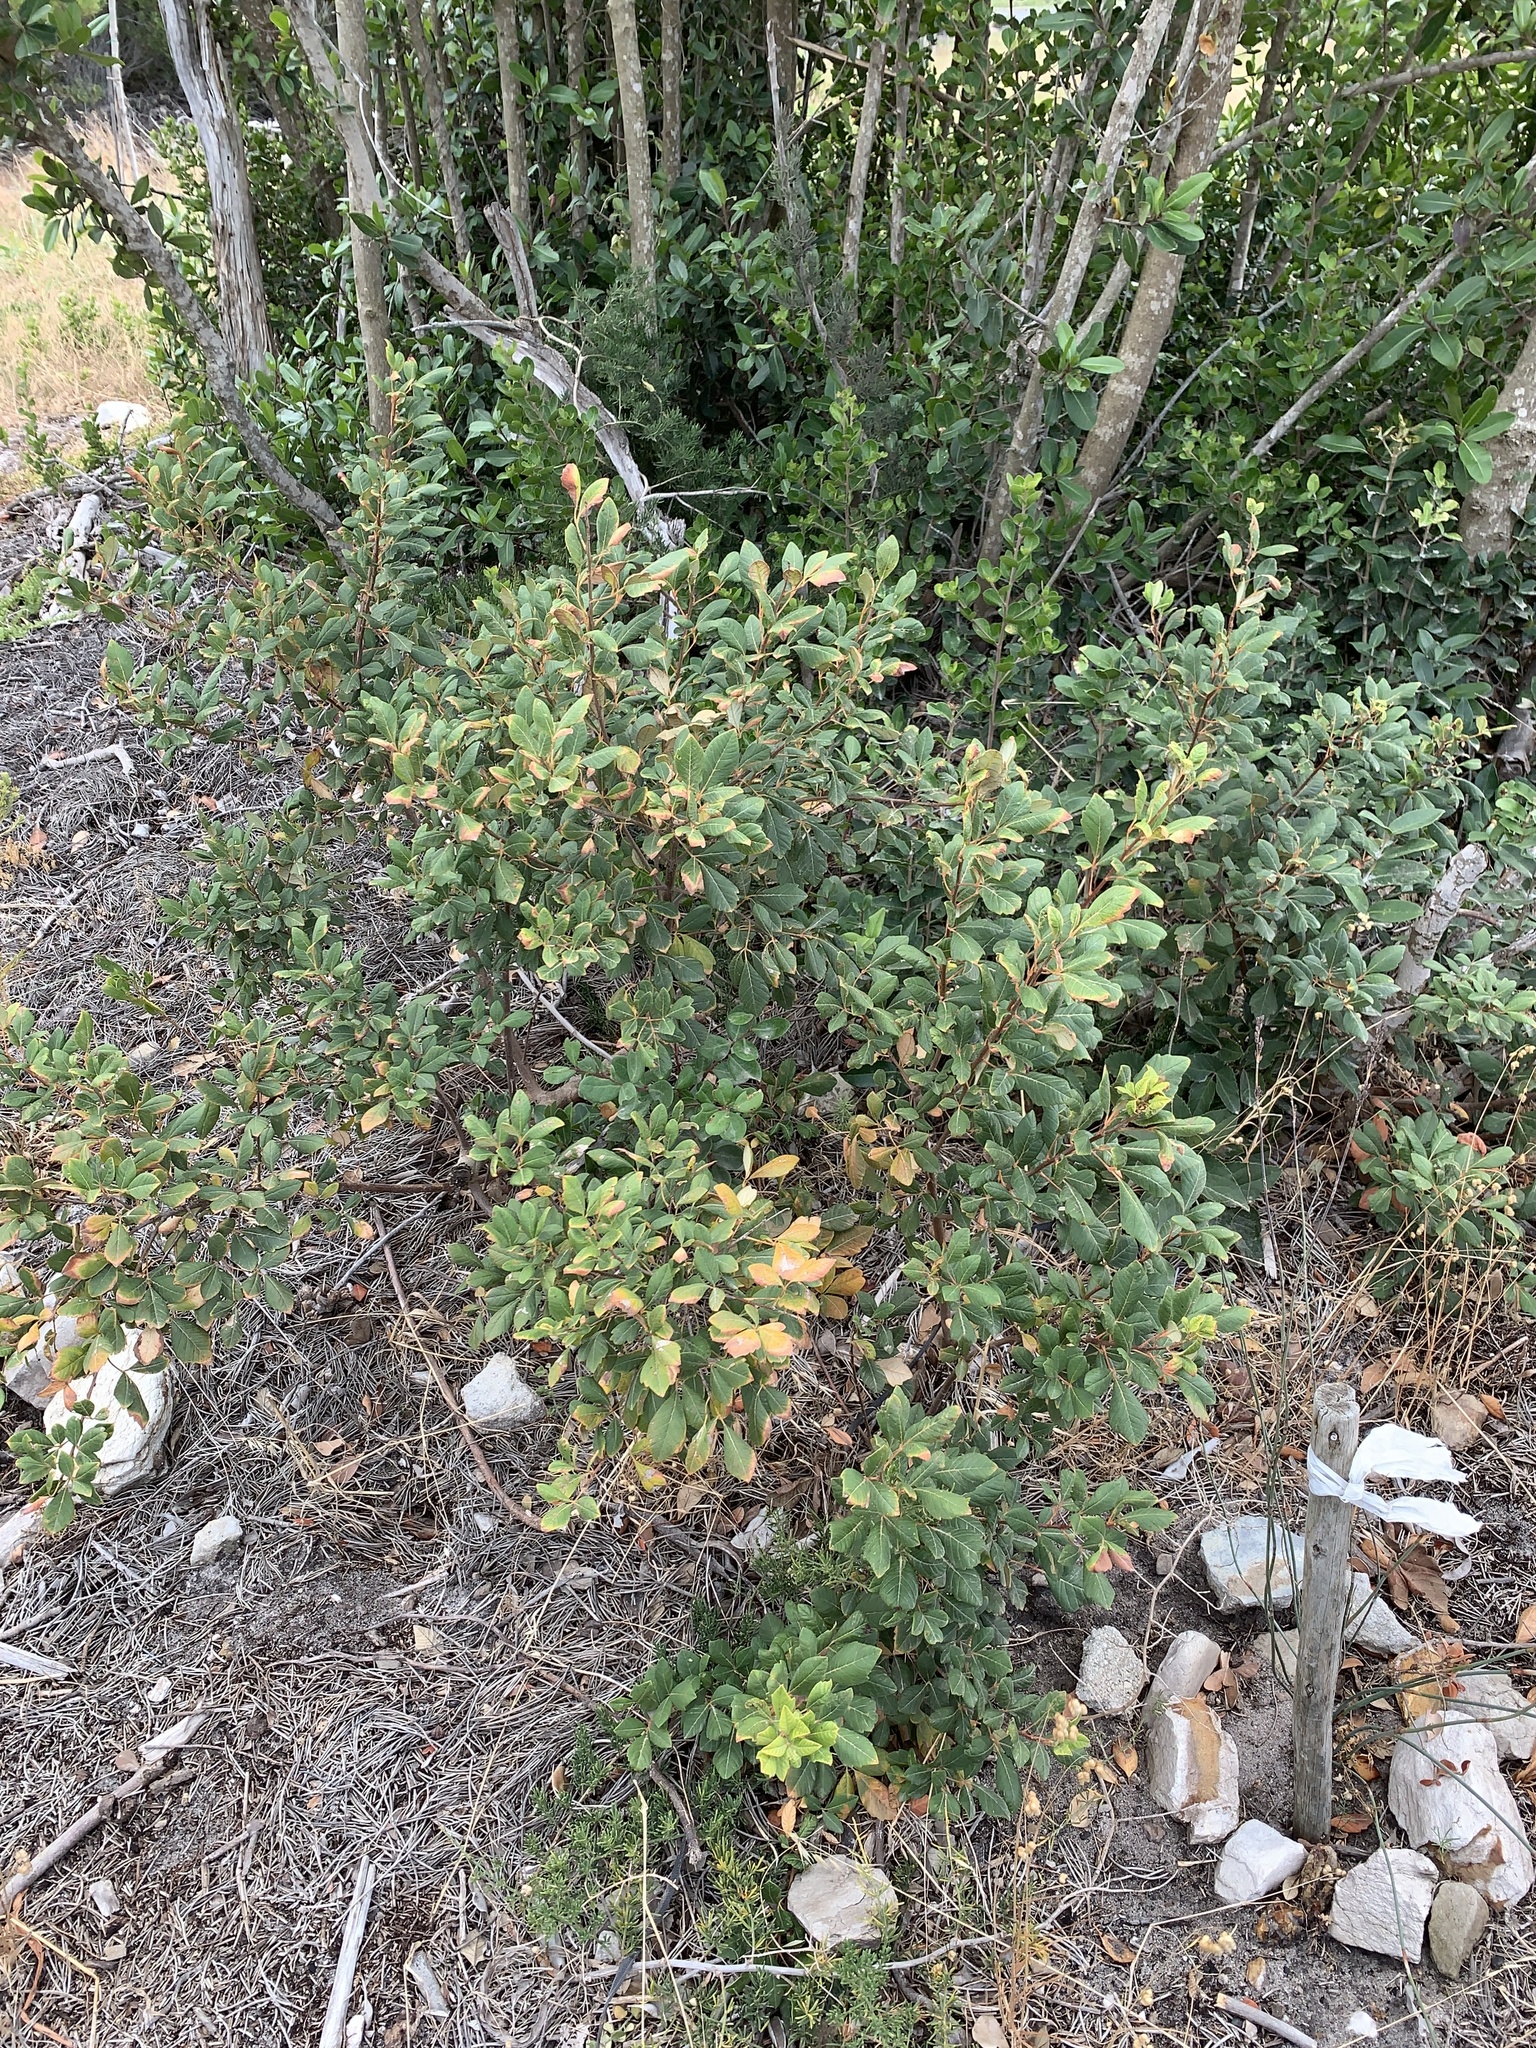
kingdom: Plantae
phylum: Tracheophyta
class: Magnoliopsida
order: Sapindales
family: Anacardiaceae
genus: Searsia
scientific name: Searsia tomentosa
